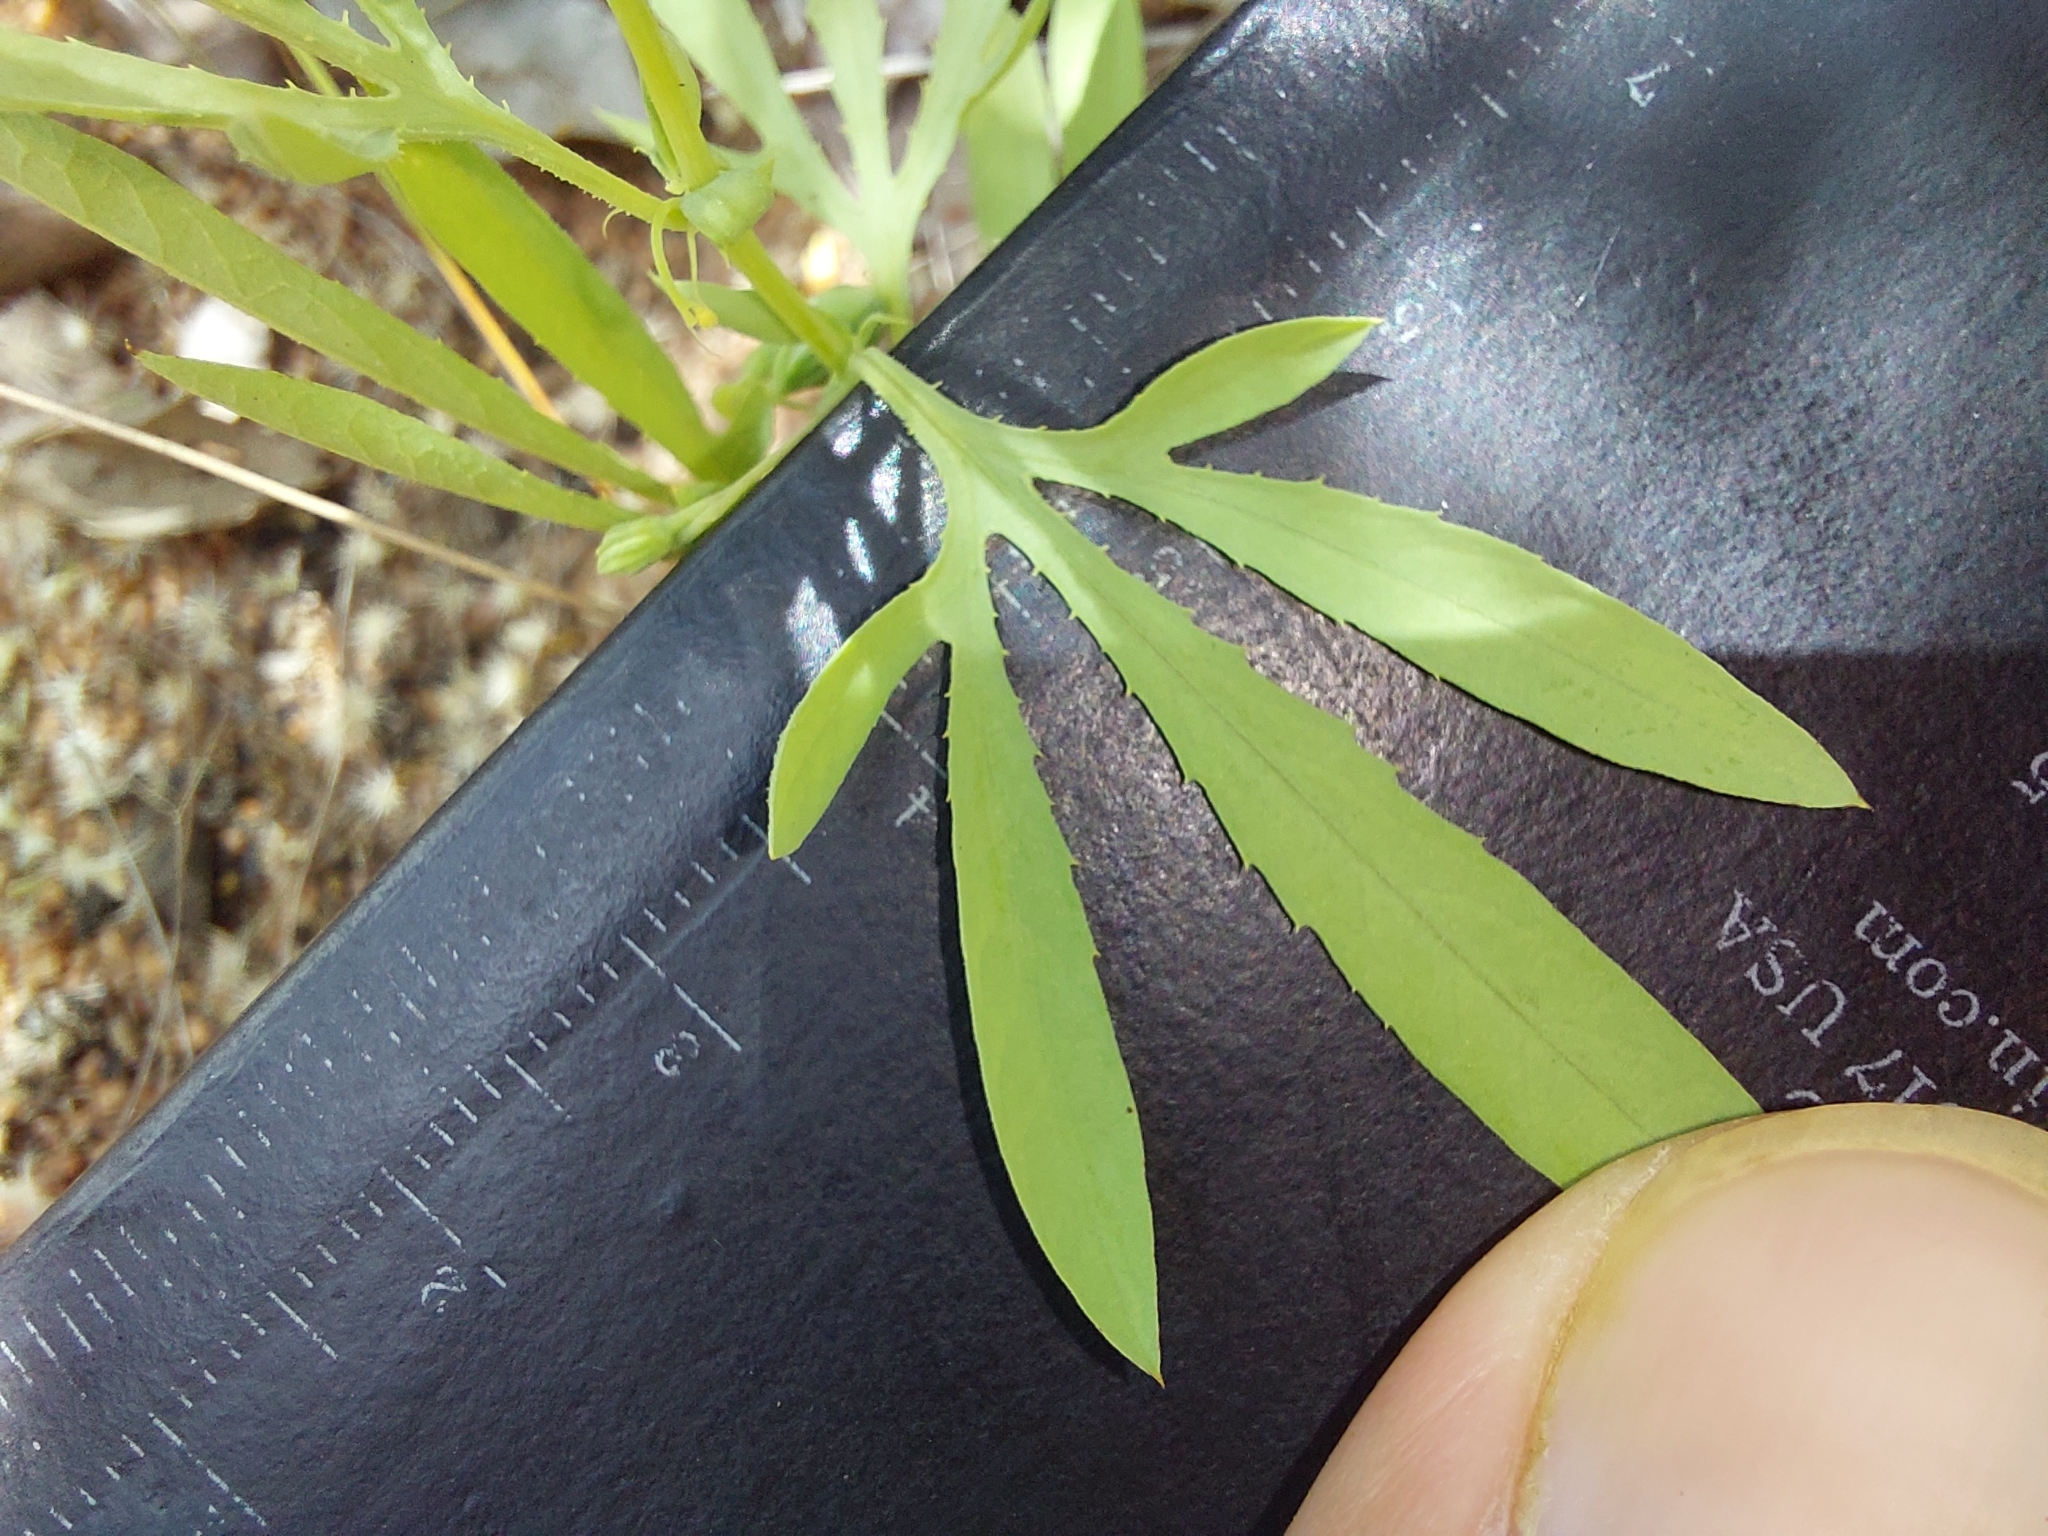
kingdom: Plantae
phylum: Tracheophyta
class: Magnoliopsida
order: Malpighiales
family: Passifloraceae
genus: Basananthe
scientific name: Basananthe pedata
